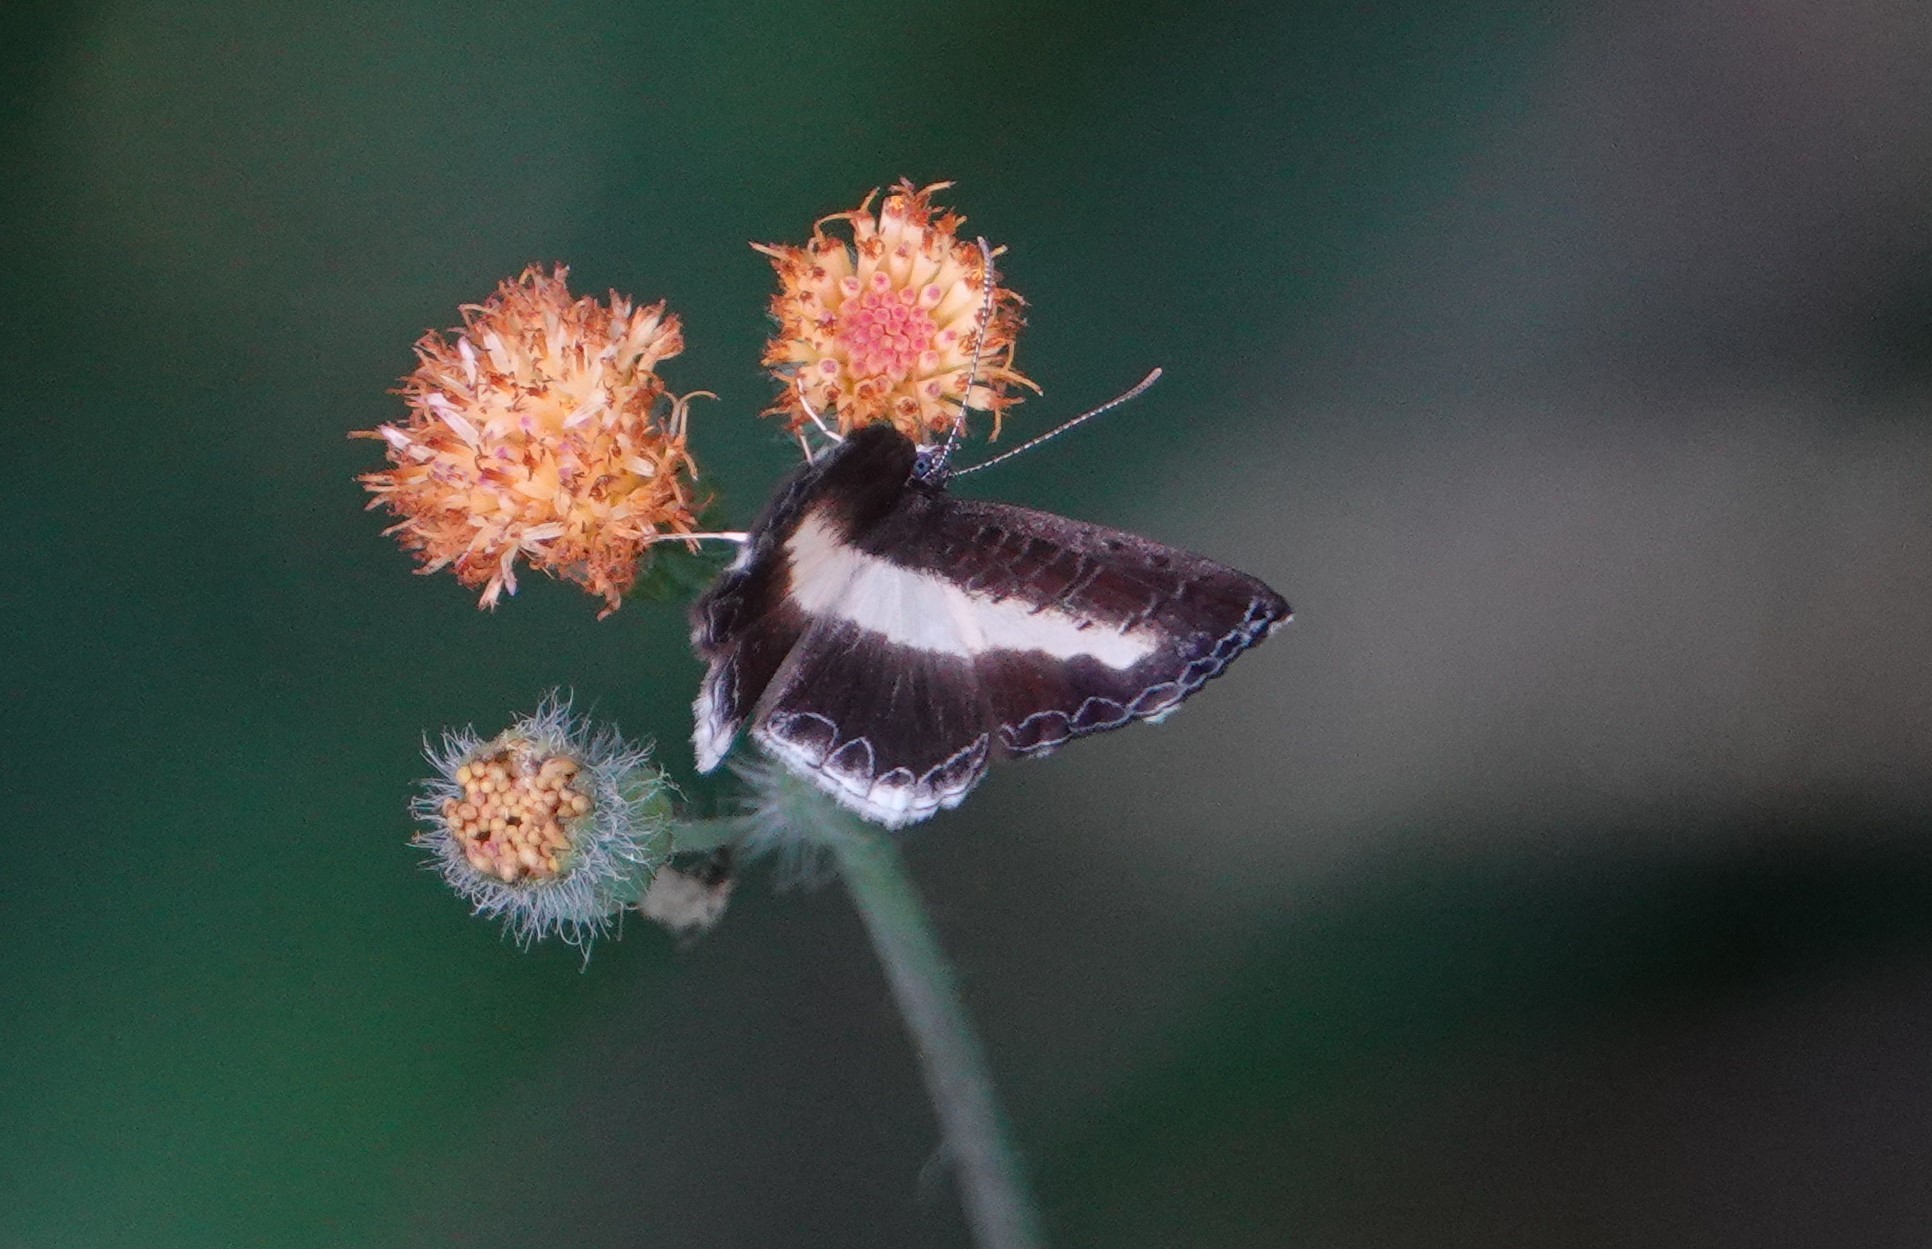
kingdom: Animalia
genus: Nymphidium
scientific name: Nymphidium baeotia
